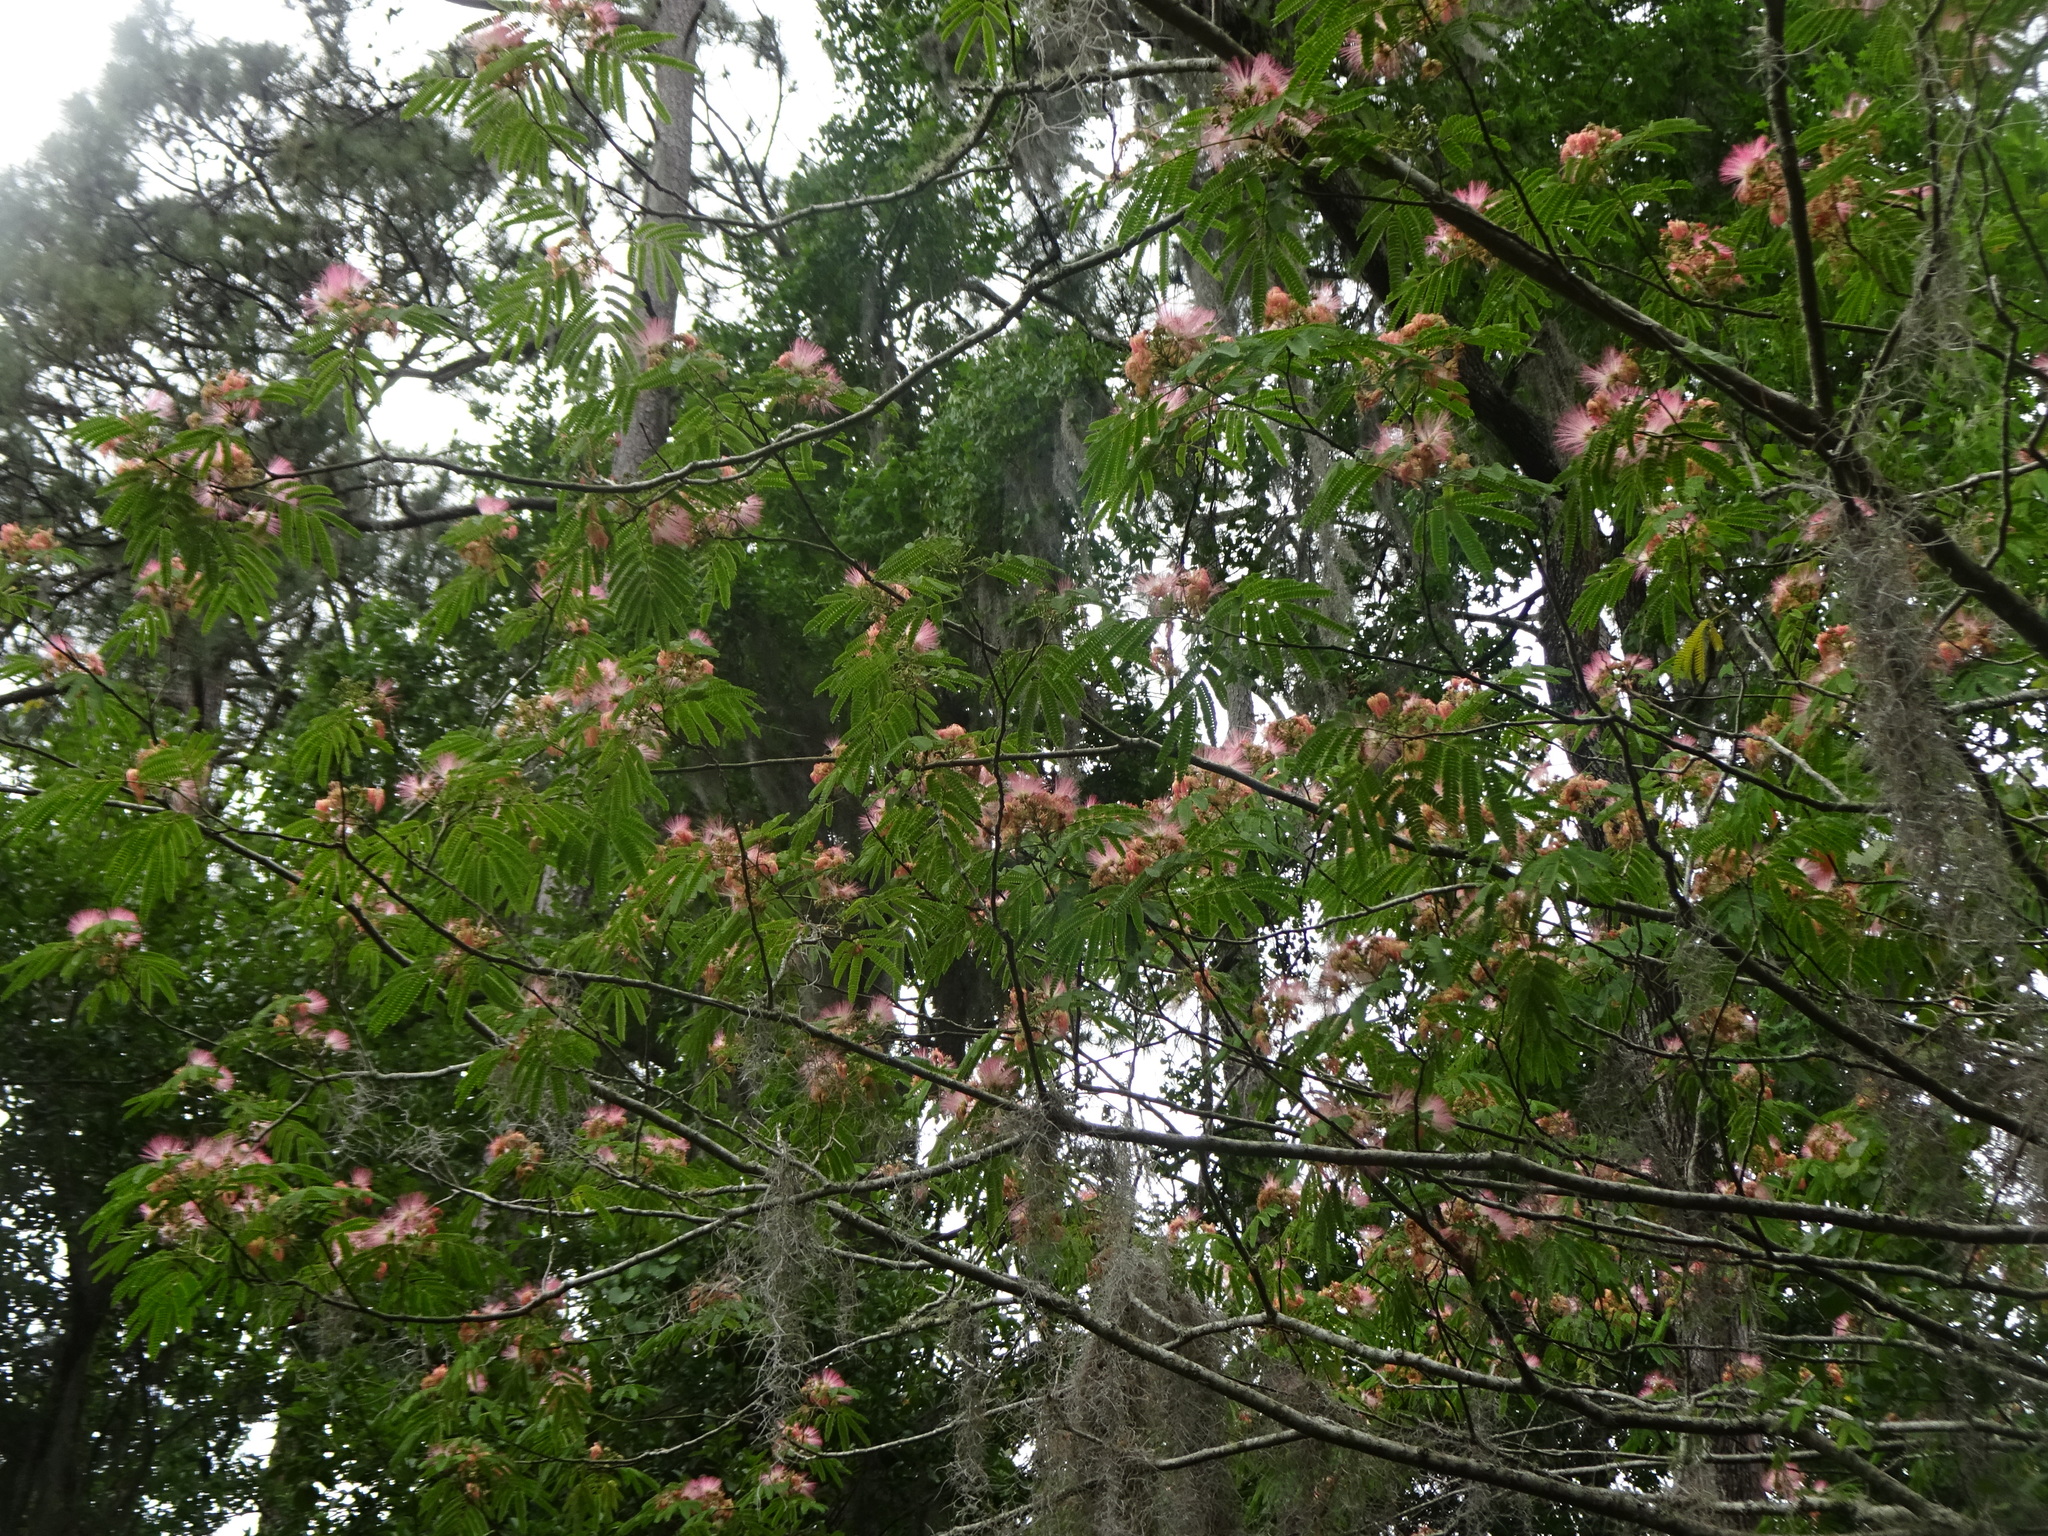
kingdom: Plantae
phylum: Tracheophyta
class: Magnoliopsida
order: Fabales
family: Fabaceae
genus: Albizia
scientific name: Albizia julibrissin
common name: Silktree
